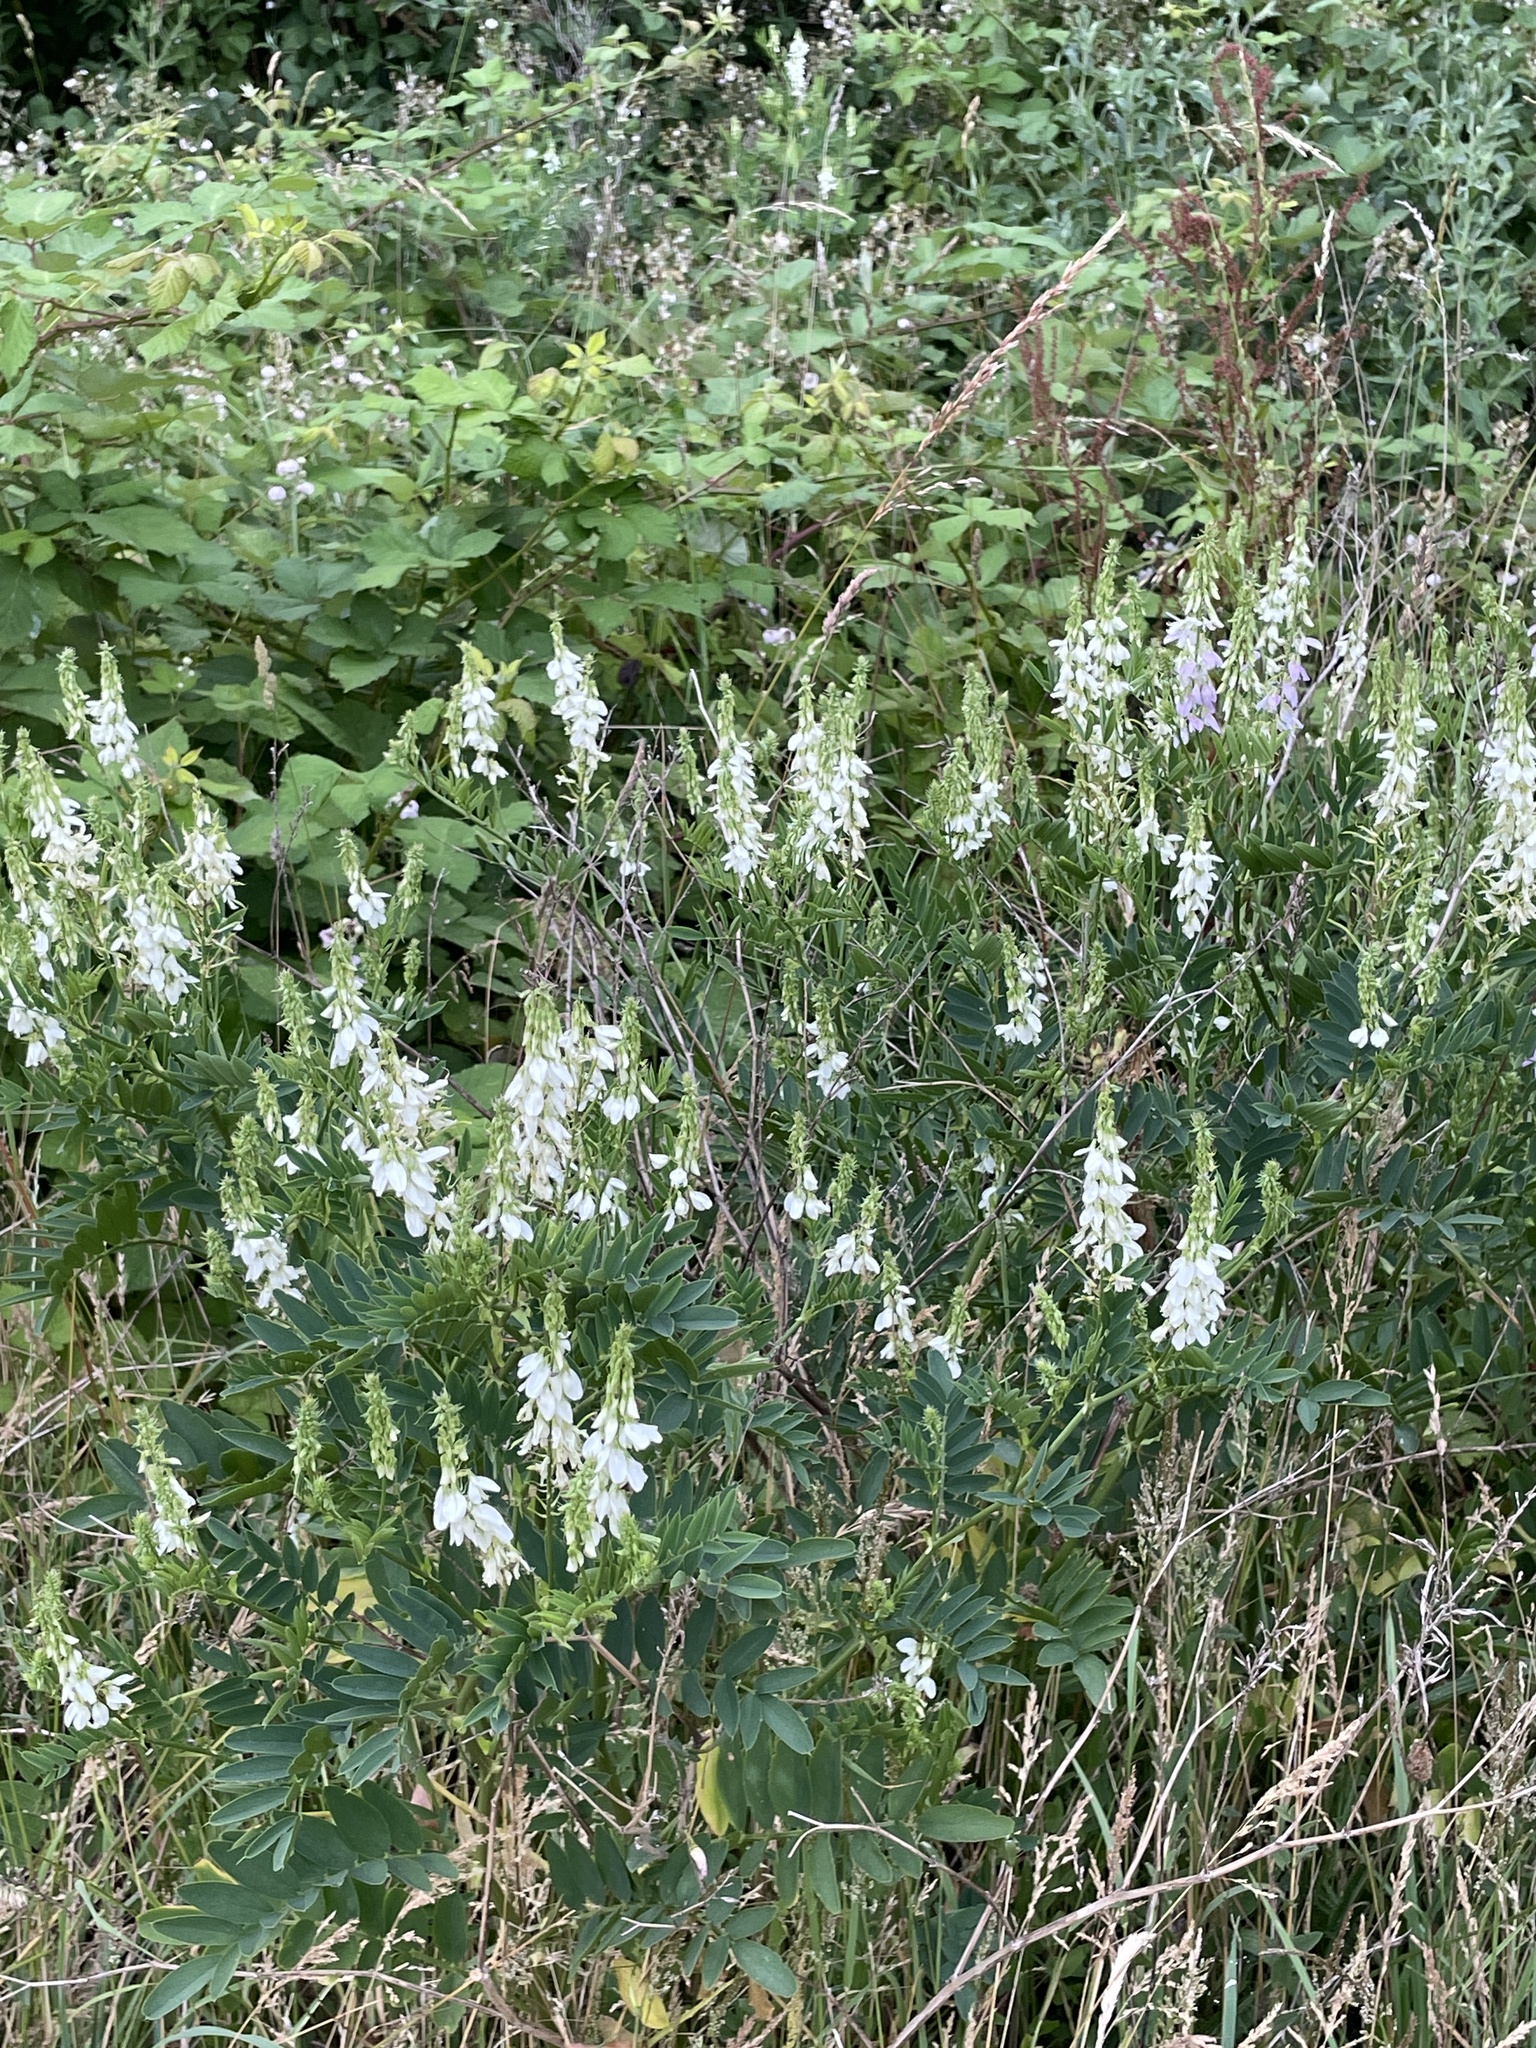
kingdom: Plantae
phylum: Tracheophyta
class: Magnoliopsida
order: Fabales
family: Fabaceae
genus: Galega
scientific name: Galega officinalis
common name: Goat's-rue
